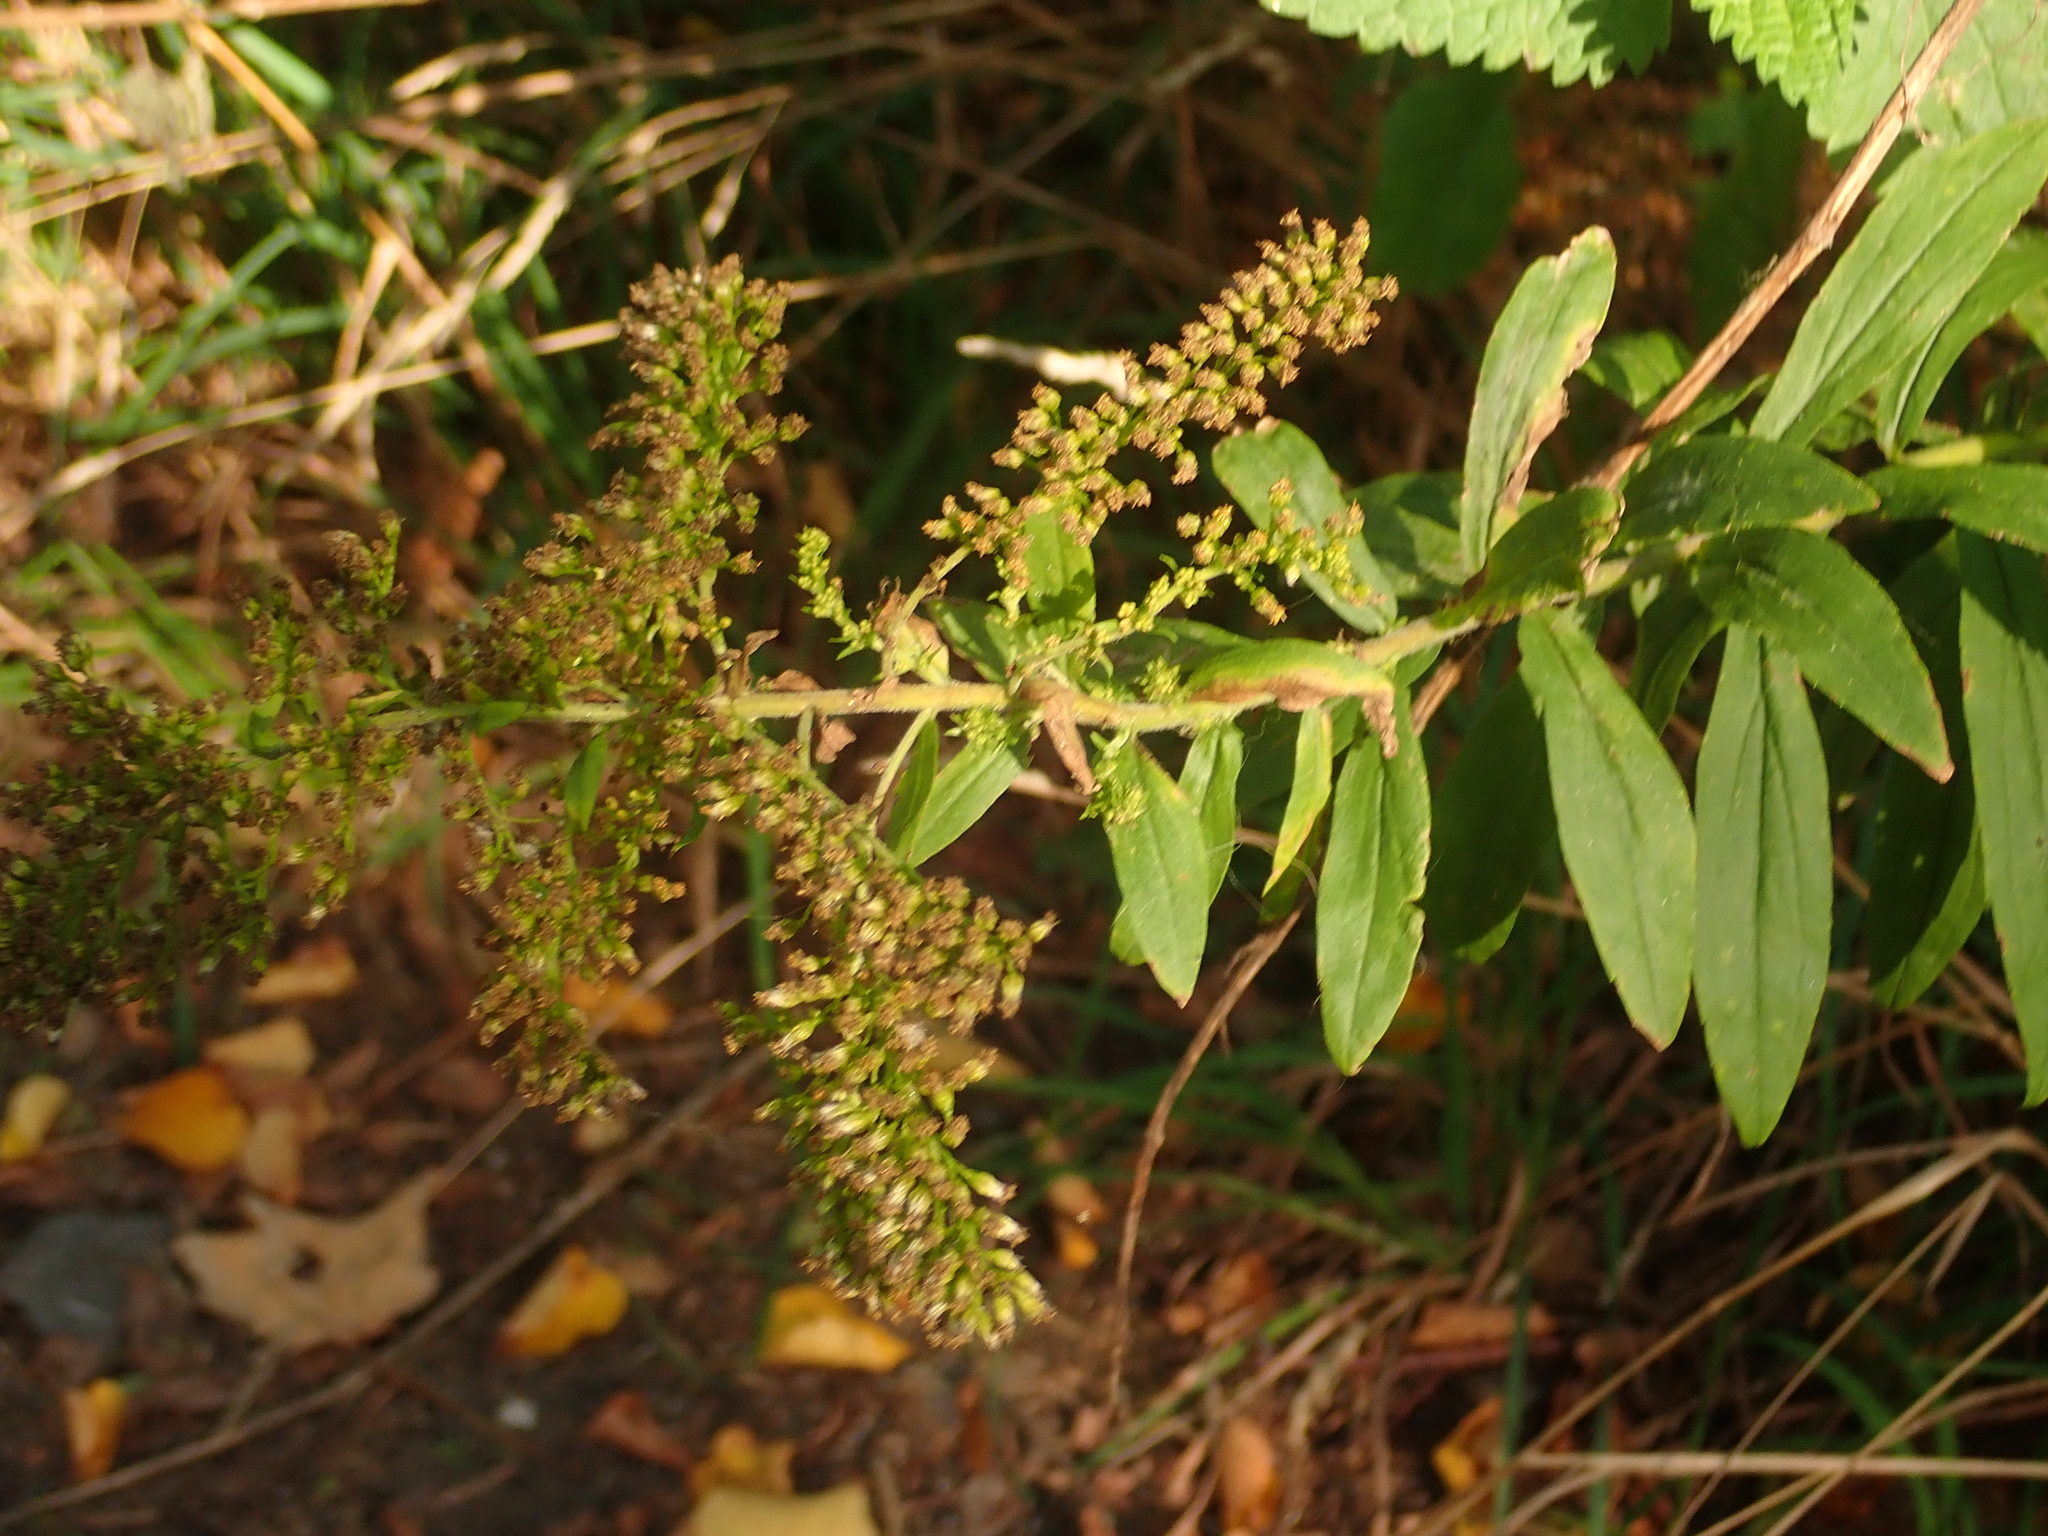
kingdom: Plantae
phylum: Tracheophyta
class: Magnoliopsida
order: Asterales
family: Asteraceae
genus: Solidago
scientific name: Solidago canadensis
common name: Canada goldenrod
